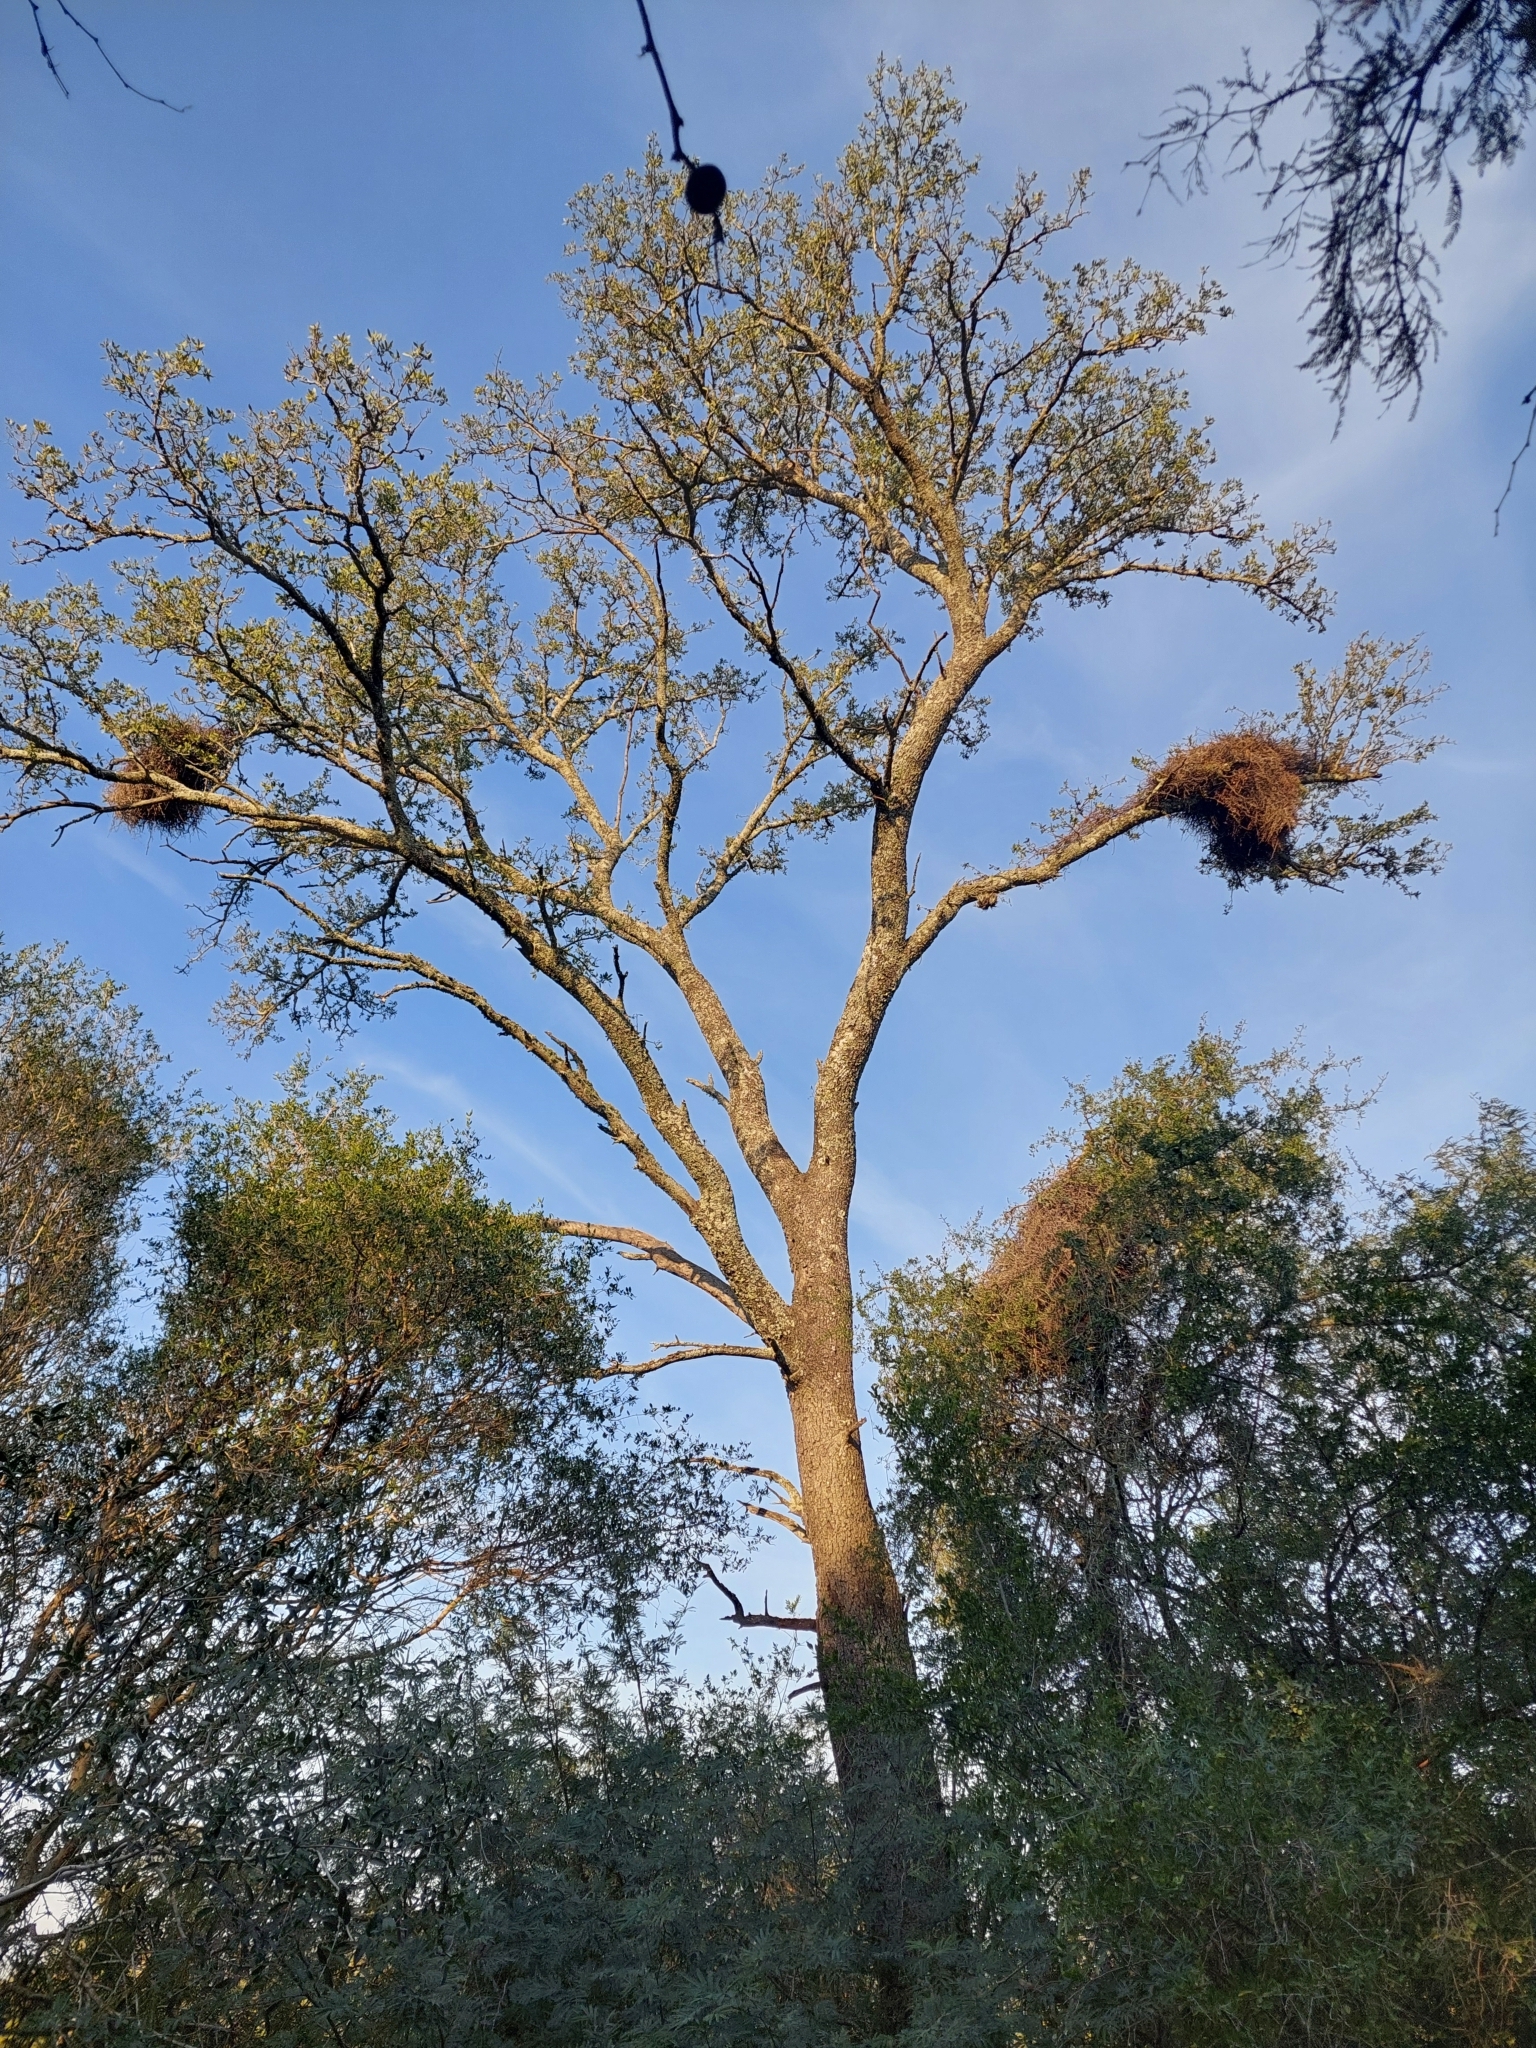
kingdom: Plantae
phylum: Tracheophyta
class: Magnoliopsida
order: Sapindales
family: Anacardiaceae
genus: Schinopsis
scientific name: Schinopsis balansae
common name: Red quebracho
